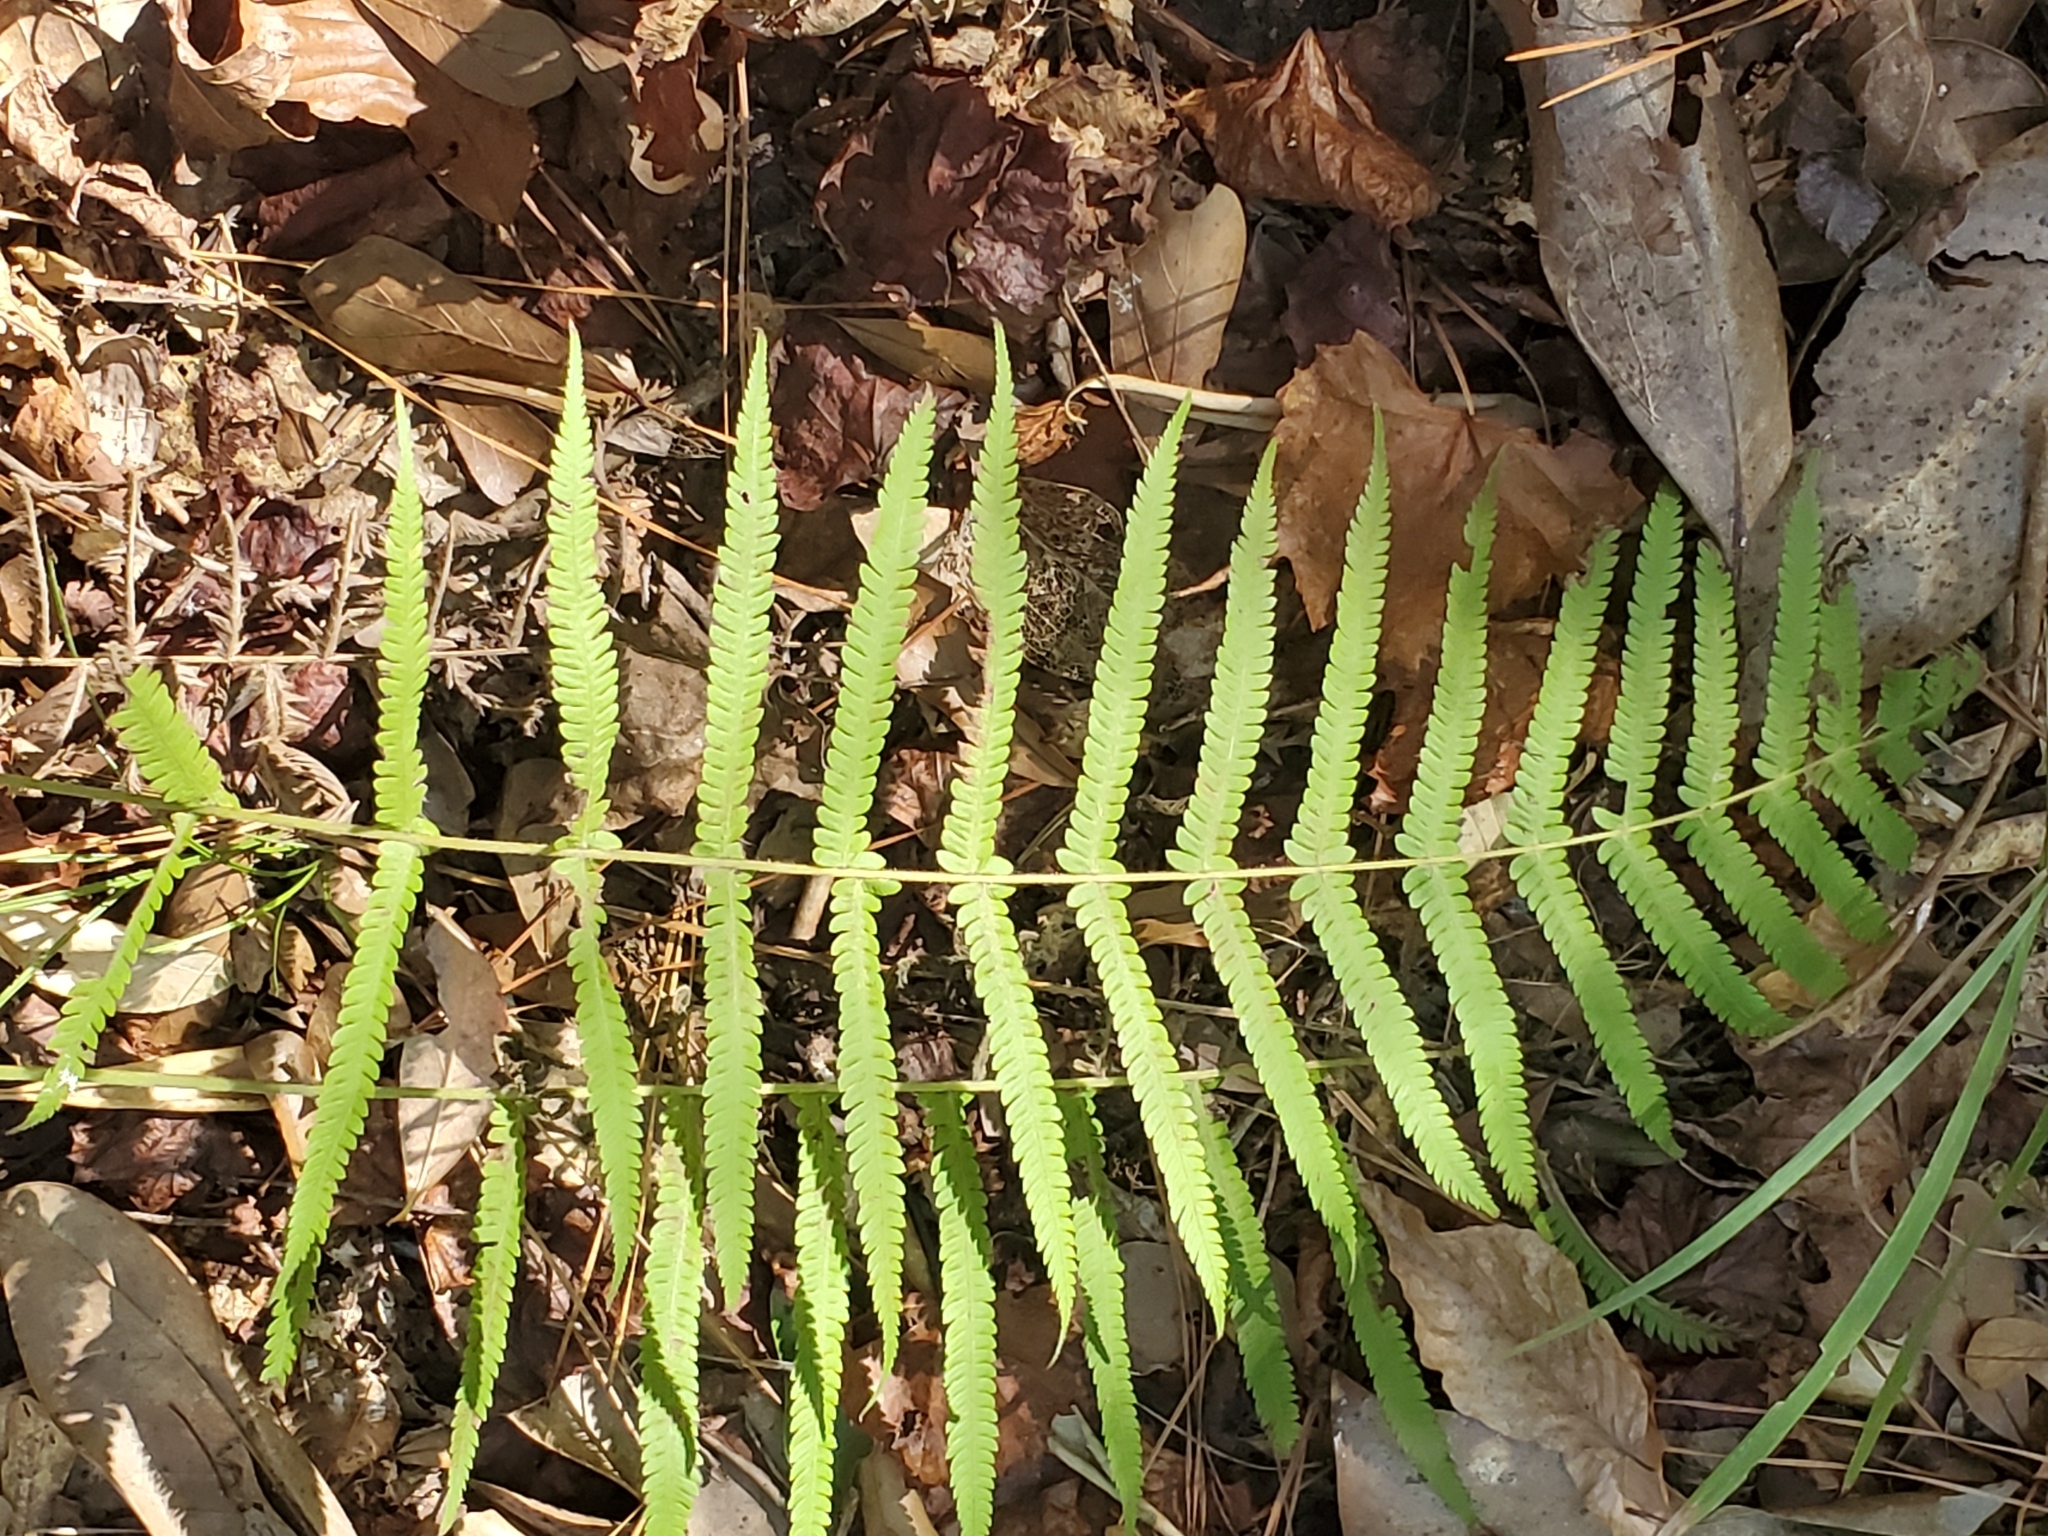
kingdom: Plantae
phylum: Tracheophyta
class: Polypodiopsida
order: Polypodiales
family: Thelypteridaceae
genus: Pelazoneuron
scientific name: Pelazoneuron kunthii
